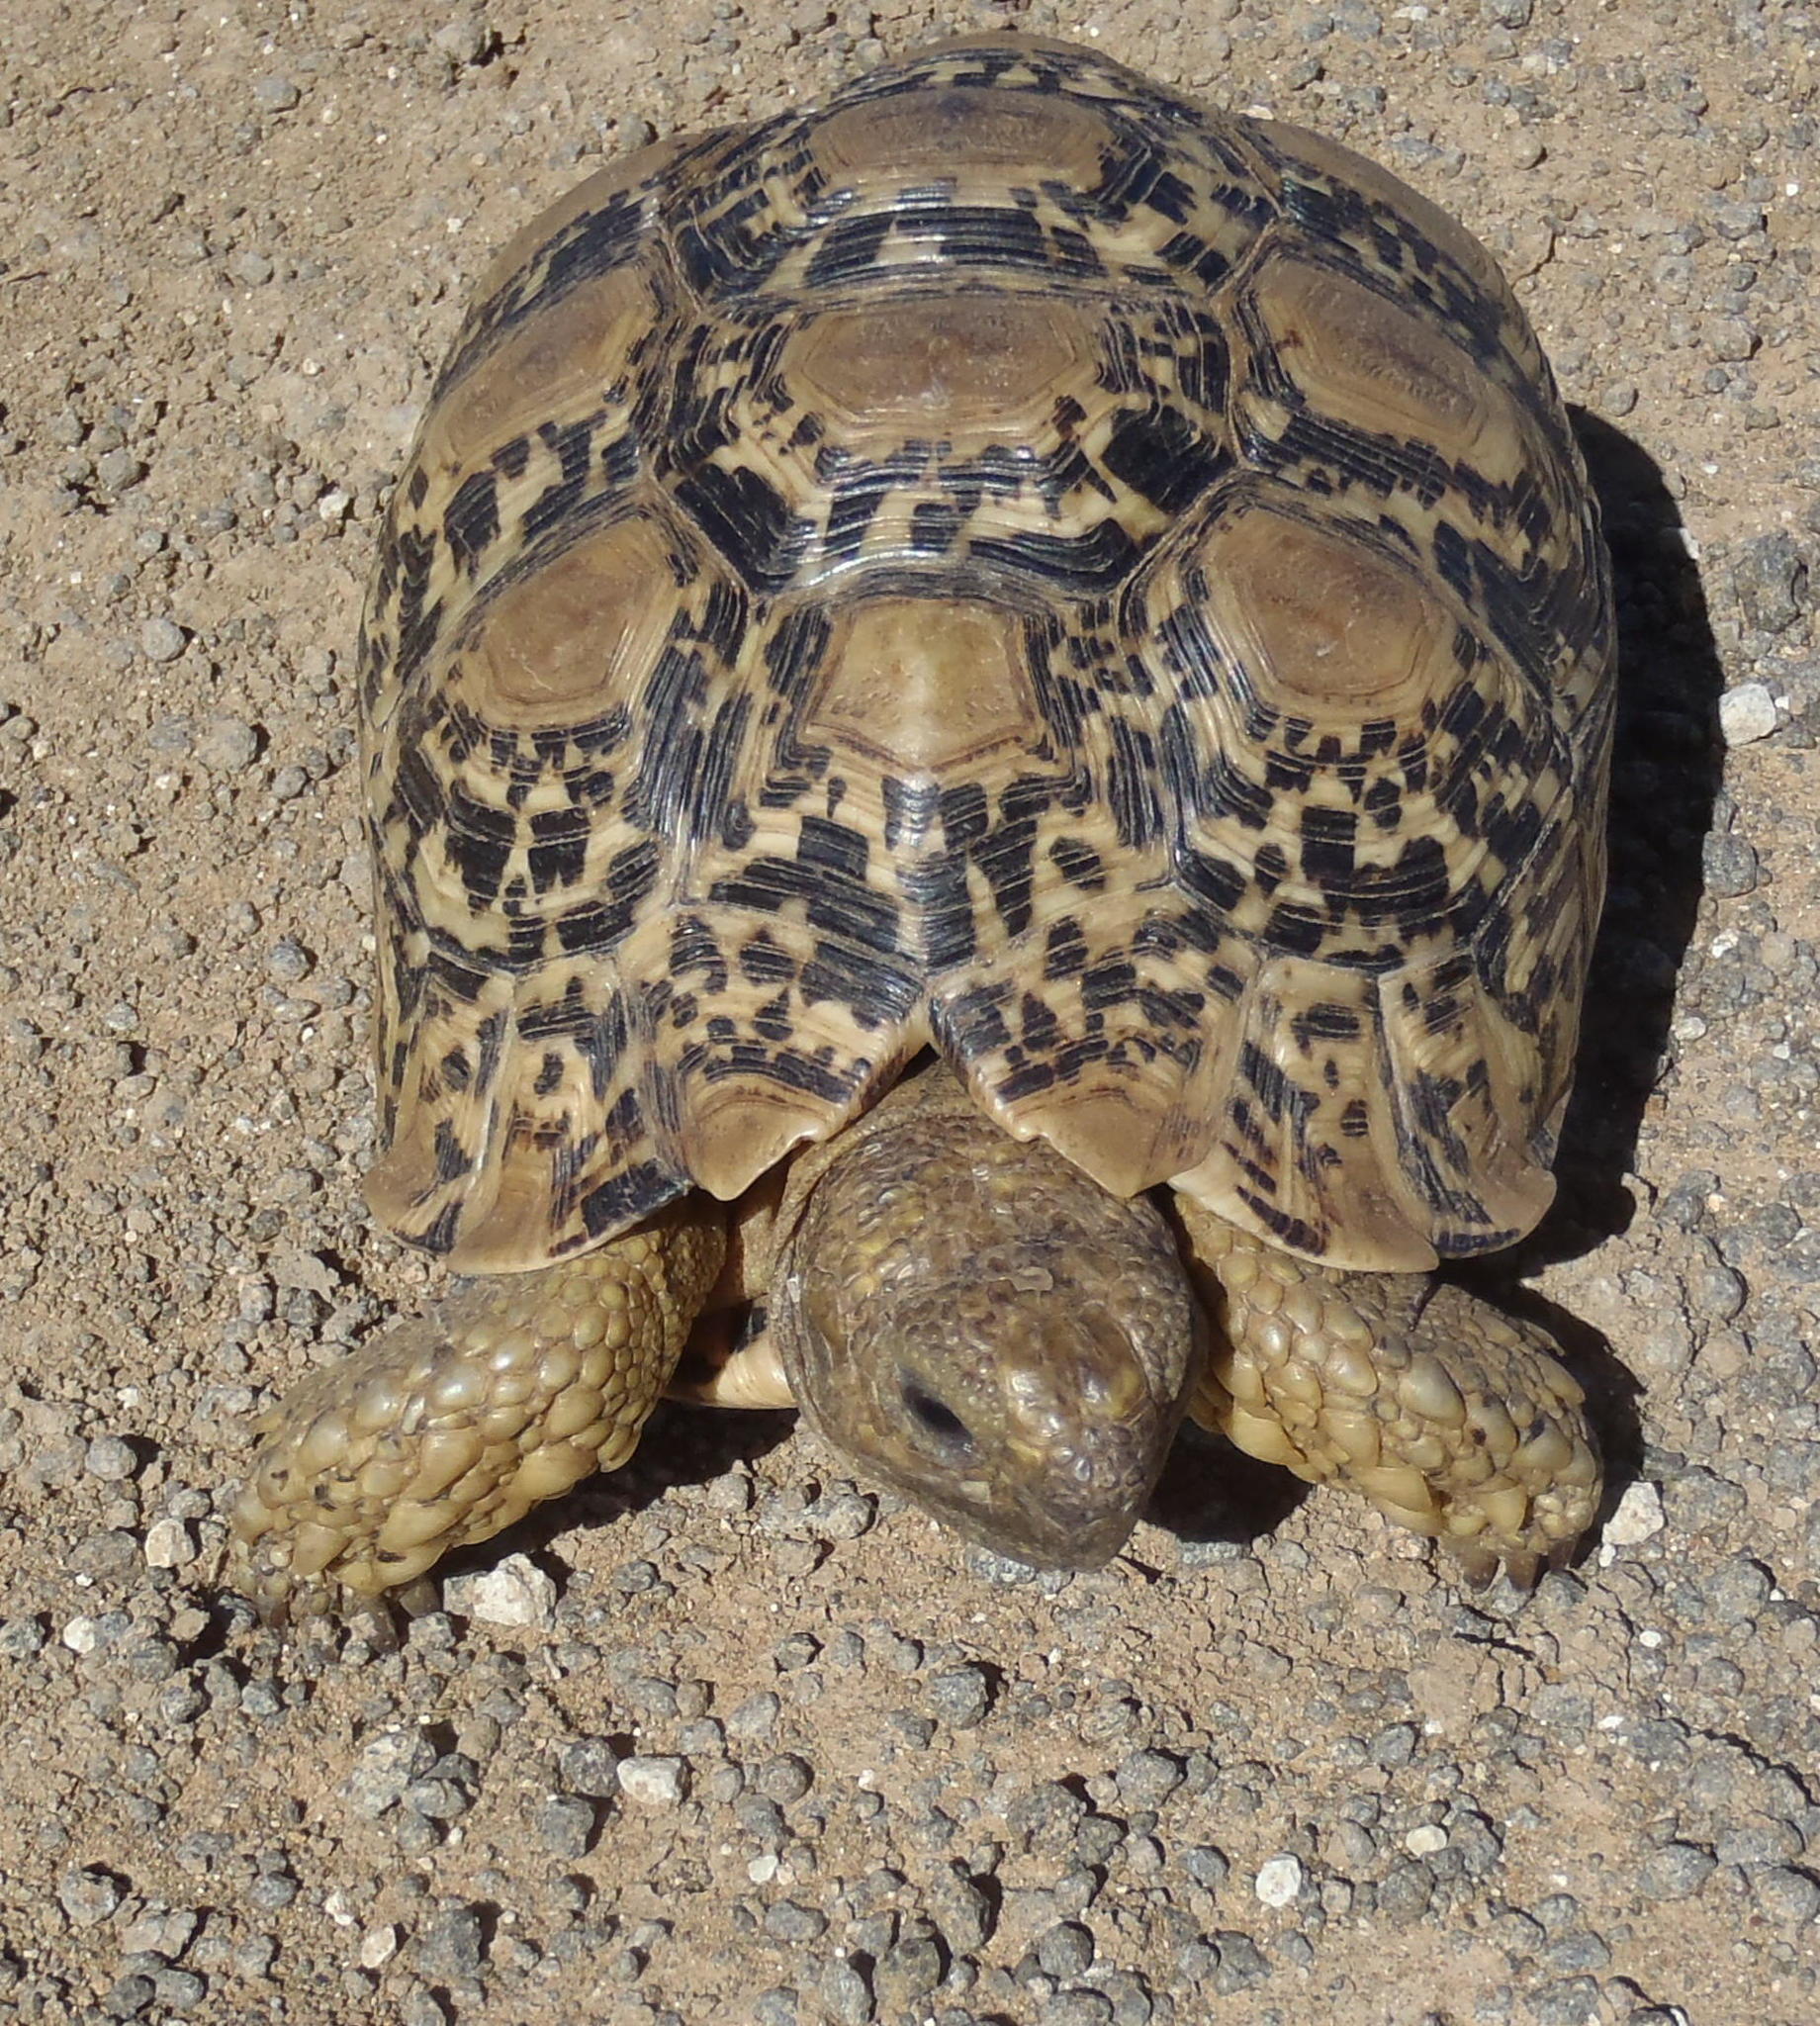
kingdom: Animalia
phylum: Chordata
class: Testudines
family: Testudinidae
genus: Stigmochelys
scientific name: Stigmochelys pardalis
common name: Leopard tortoise
